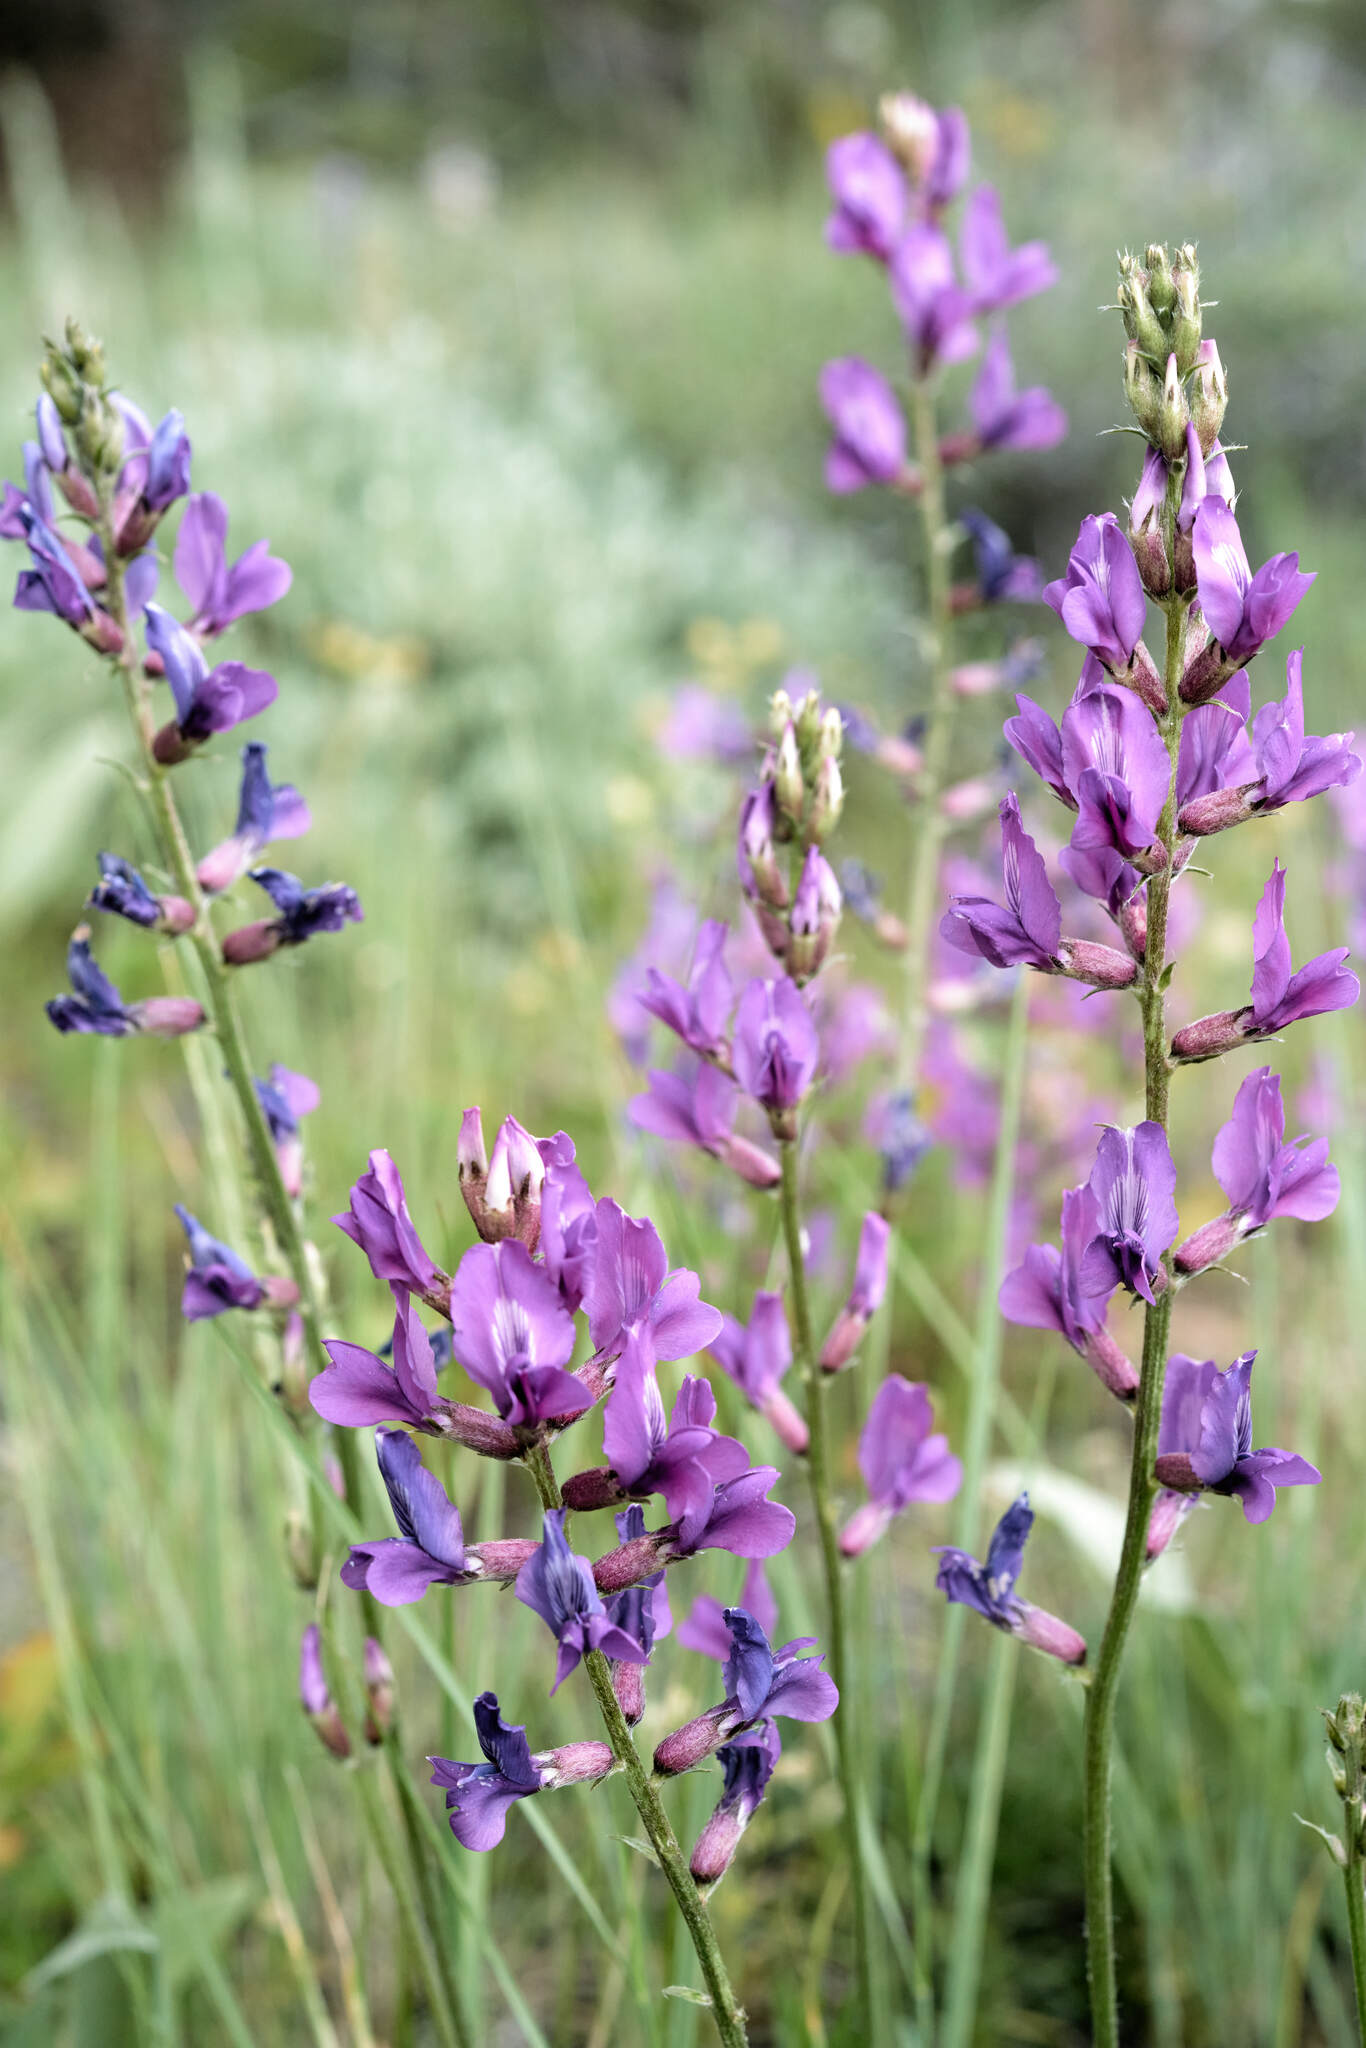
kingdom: Plantae
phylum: Tracheophyta
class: Magnoliopsida
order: Fabales
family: Fabaceae
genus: Oxytropis
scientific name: Oxytropis lambertii
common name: Purple locoweed
